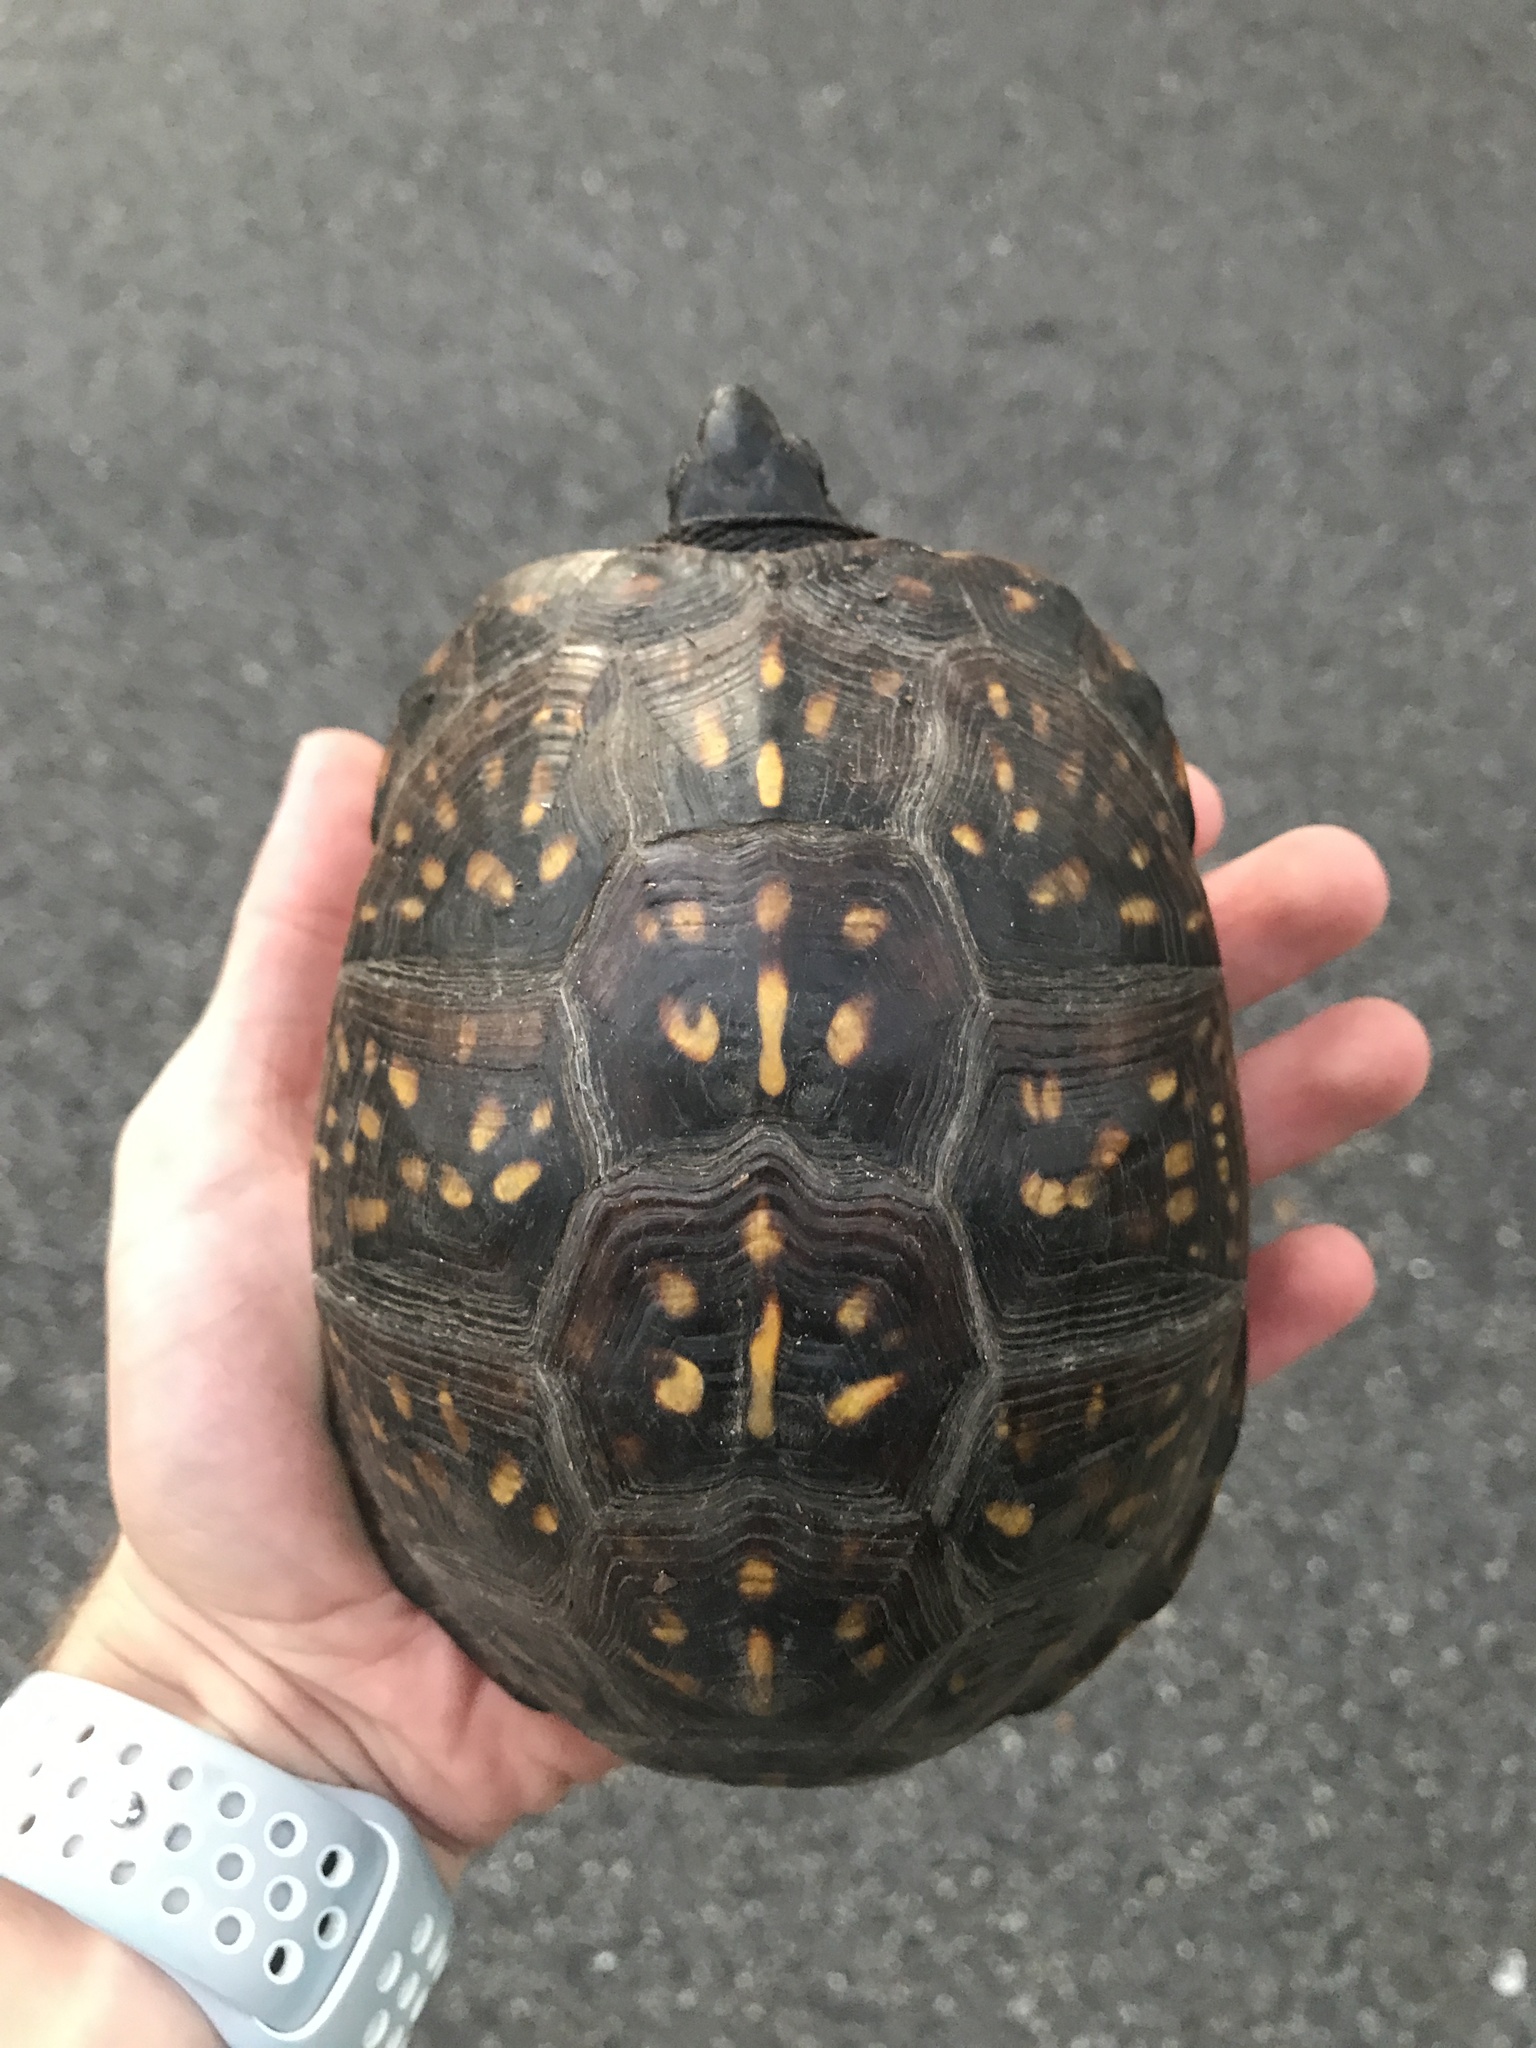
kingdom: Animalia
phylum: Chordata
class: Testudines
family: Emydidae
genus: Terrapene
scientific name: Terrapene carolina
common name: Common box turtle
